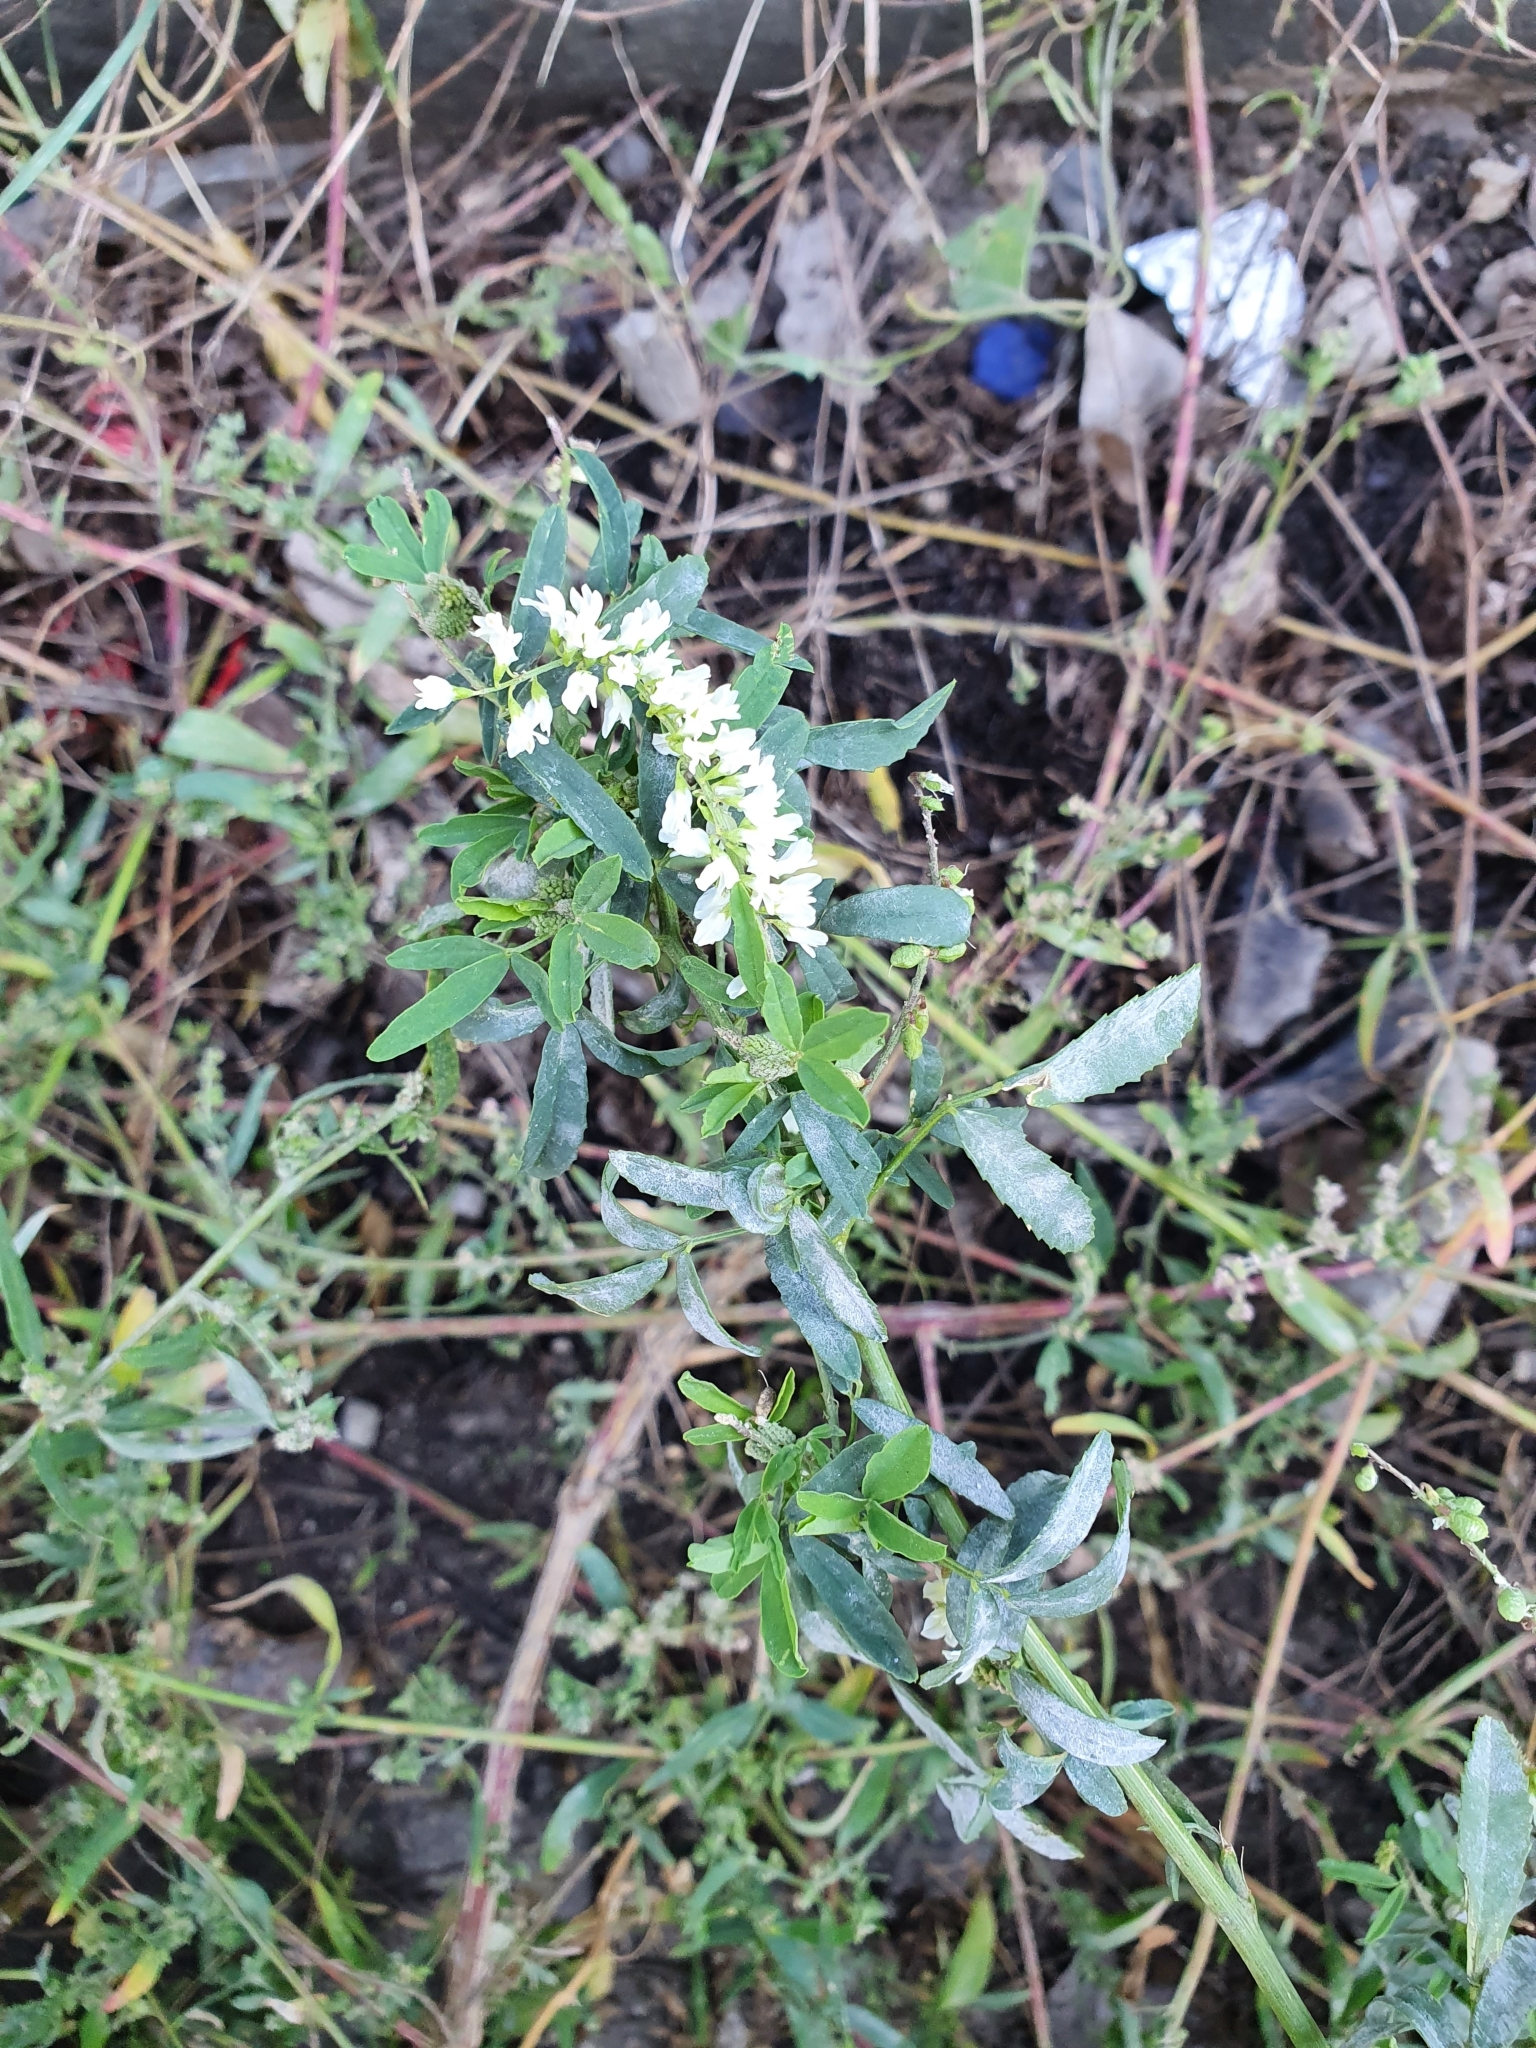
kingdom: Plantae
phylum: Tracheophyta
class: Magnoliopsida
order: Fabales
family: Fabaceae
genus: Melilotus
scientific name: Melilotus albus
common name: White melilot
